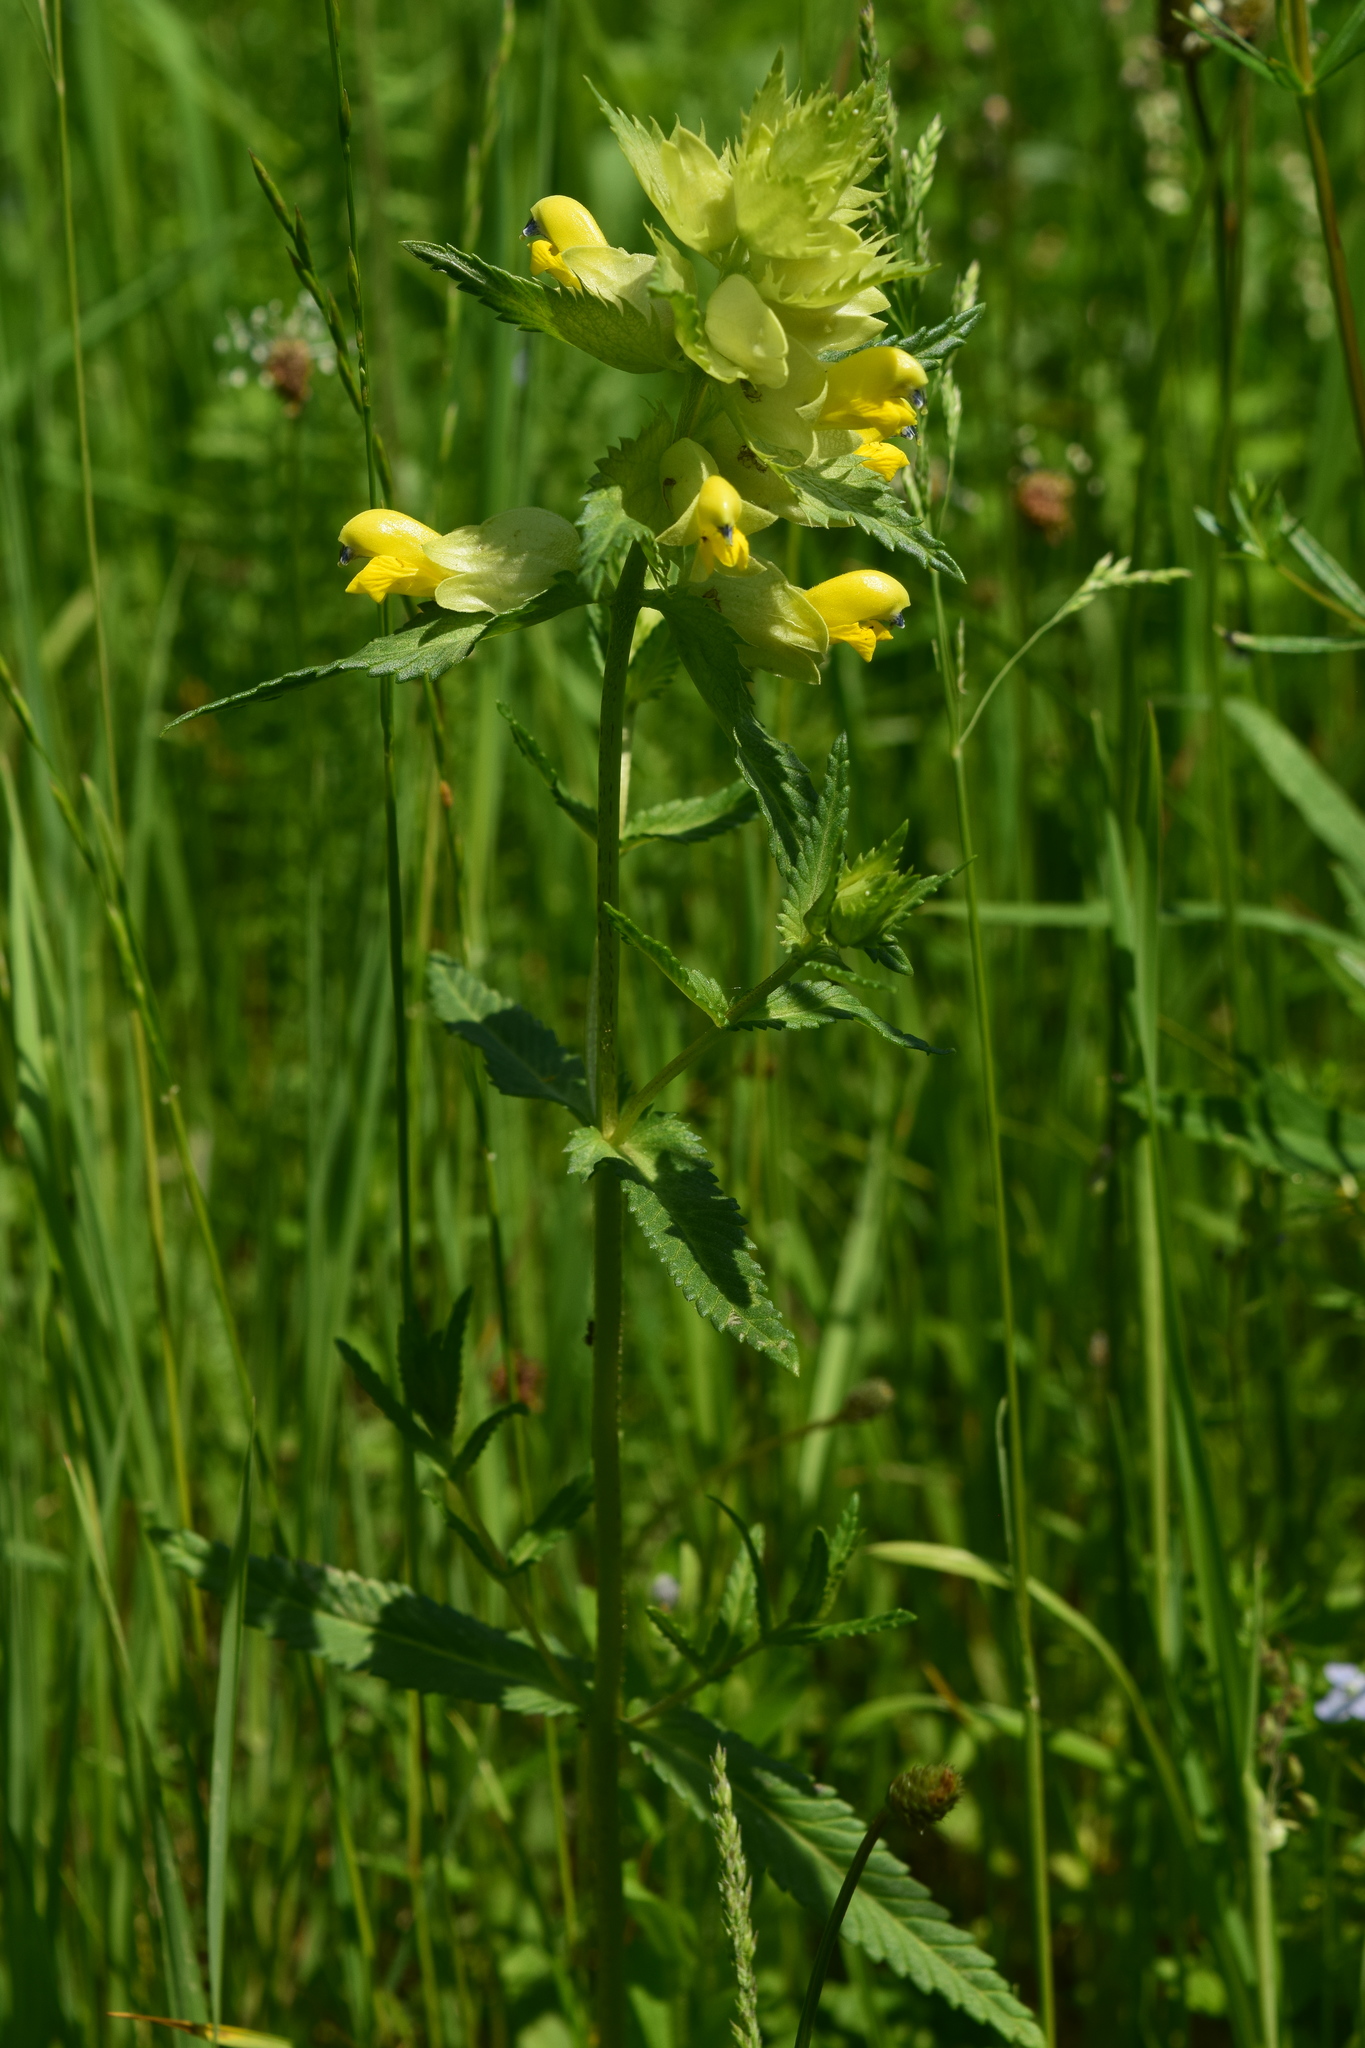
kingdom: Plantae
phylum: Tracheophyta
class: Magnoliopsida
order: Lamiales
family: Orobanchaceae
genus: Rhinanthus
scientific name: Rhinanthus serotinus
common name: Late-flowering yellow rattle
